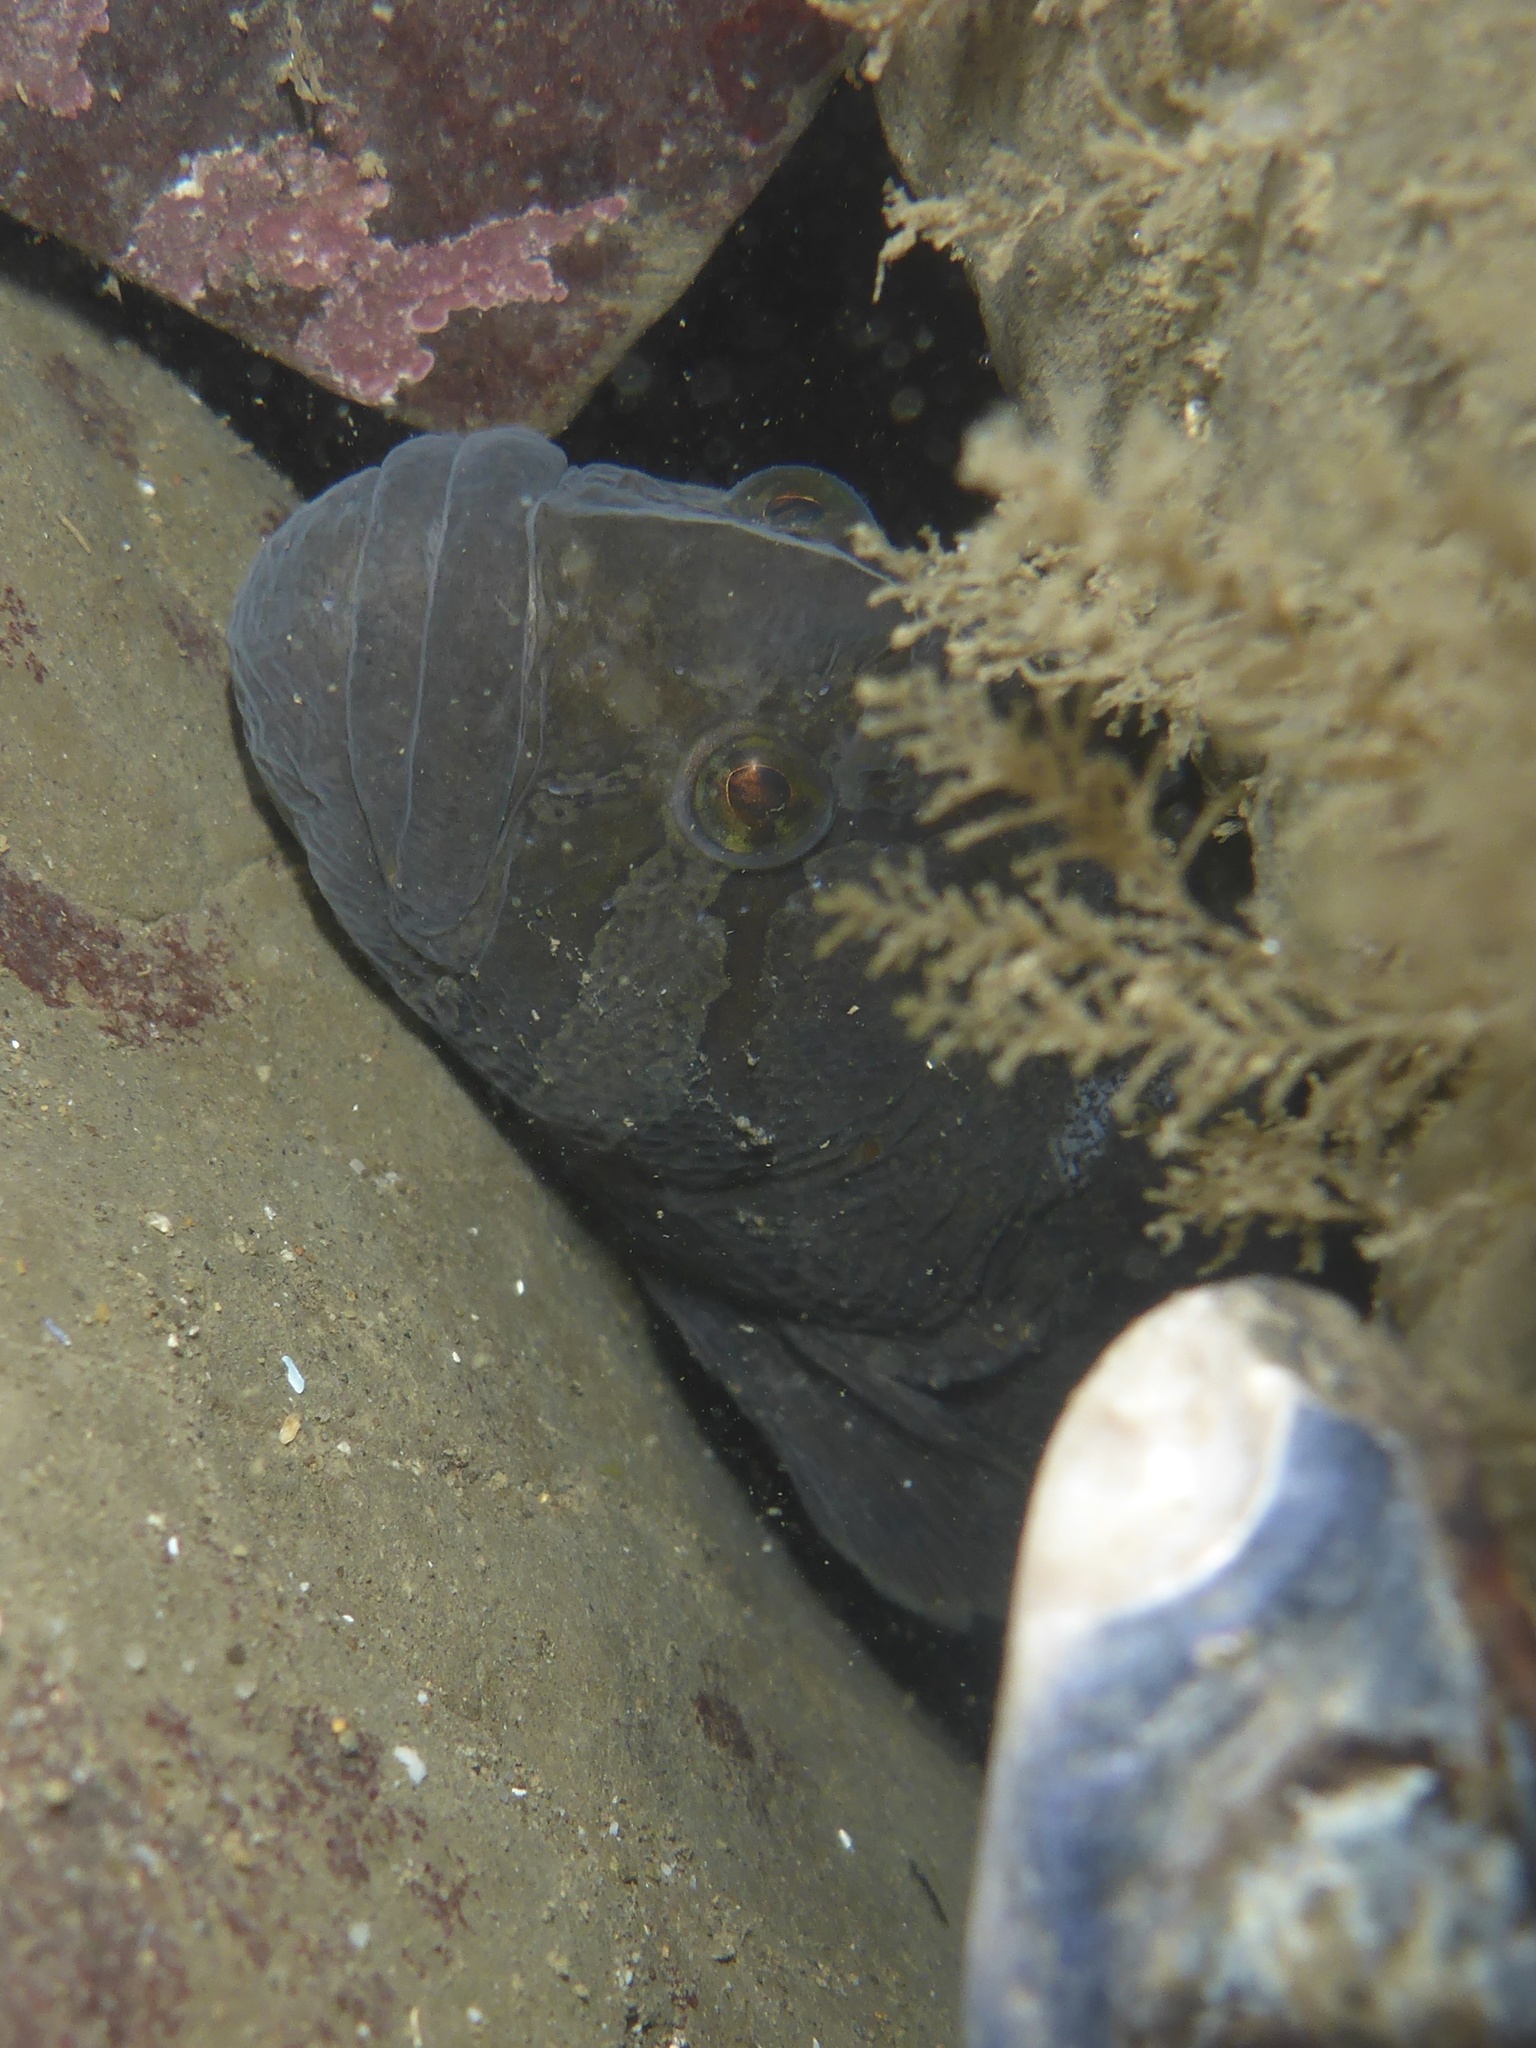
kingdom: Animalia
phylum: Chordata
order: Perciformes
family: Stichaeidae
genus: Cebidichthys
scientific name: Cebidichthys violaceus
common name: Monkeyface prickleback
